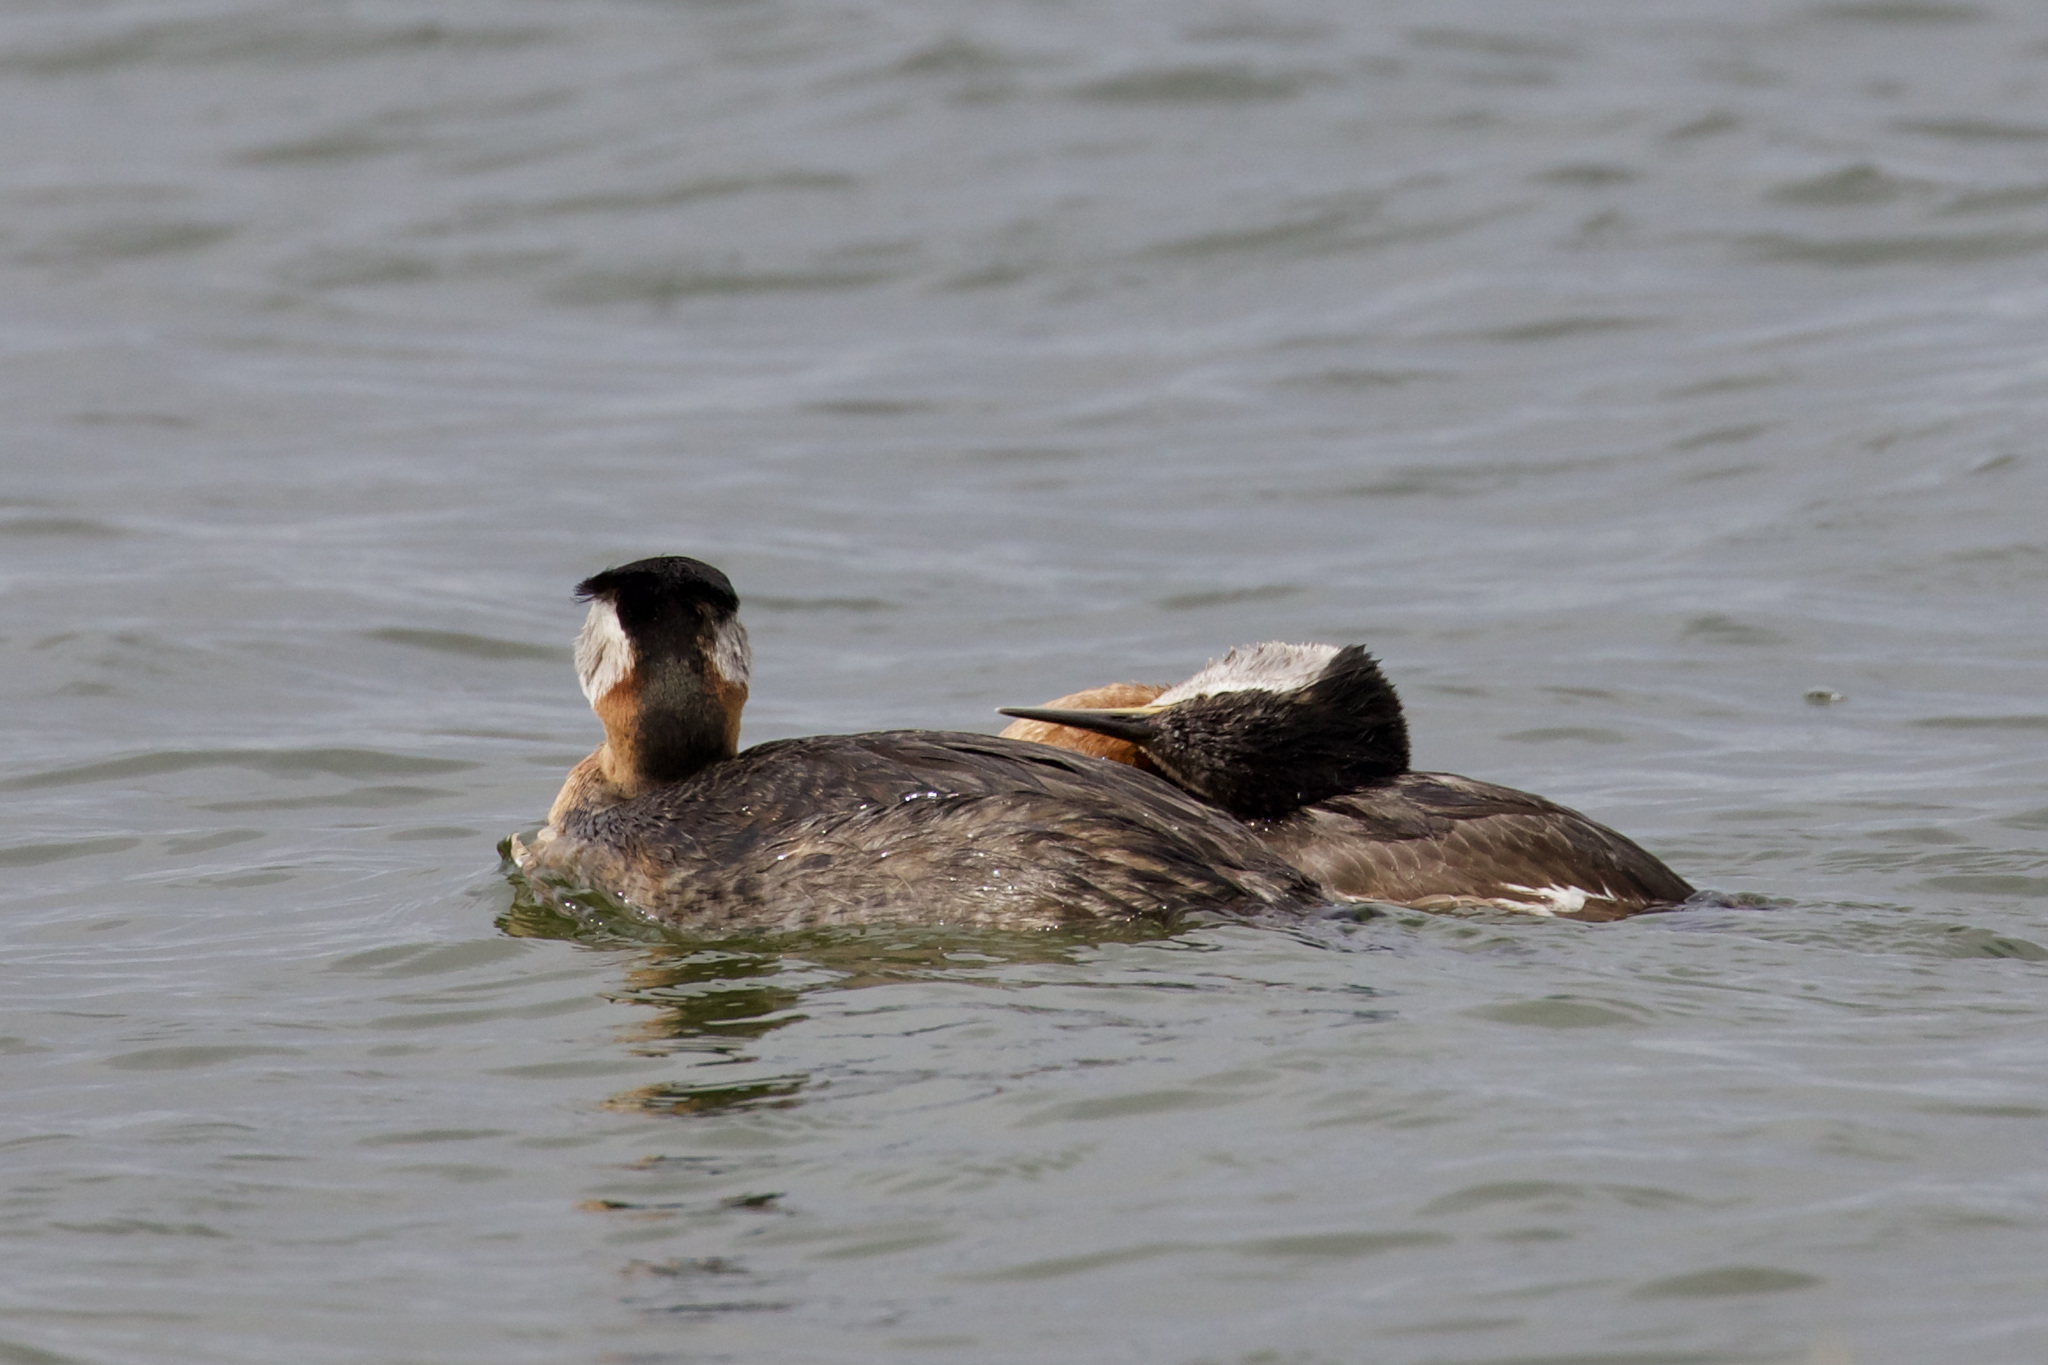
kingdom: Animalia
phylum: Chordata
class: Aves
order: Podicipediformes
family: Podicipedidae
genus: Podiceps
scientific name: Podiceps grisegena
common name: Red-necked grebe
